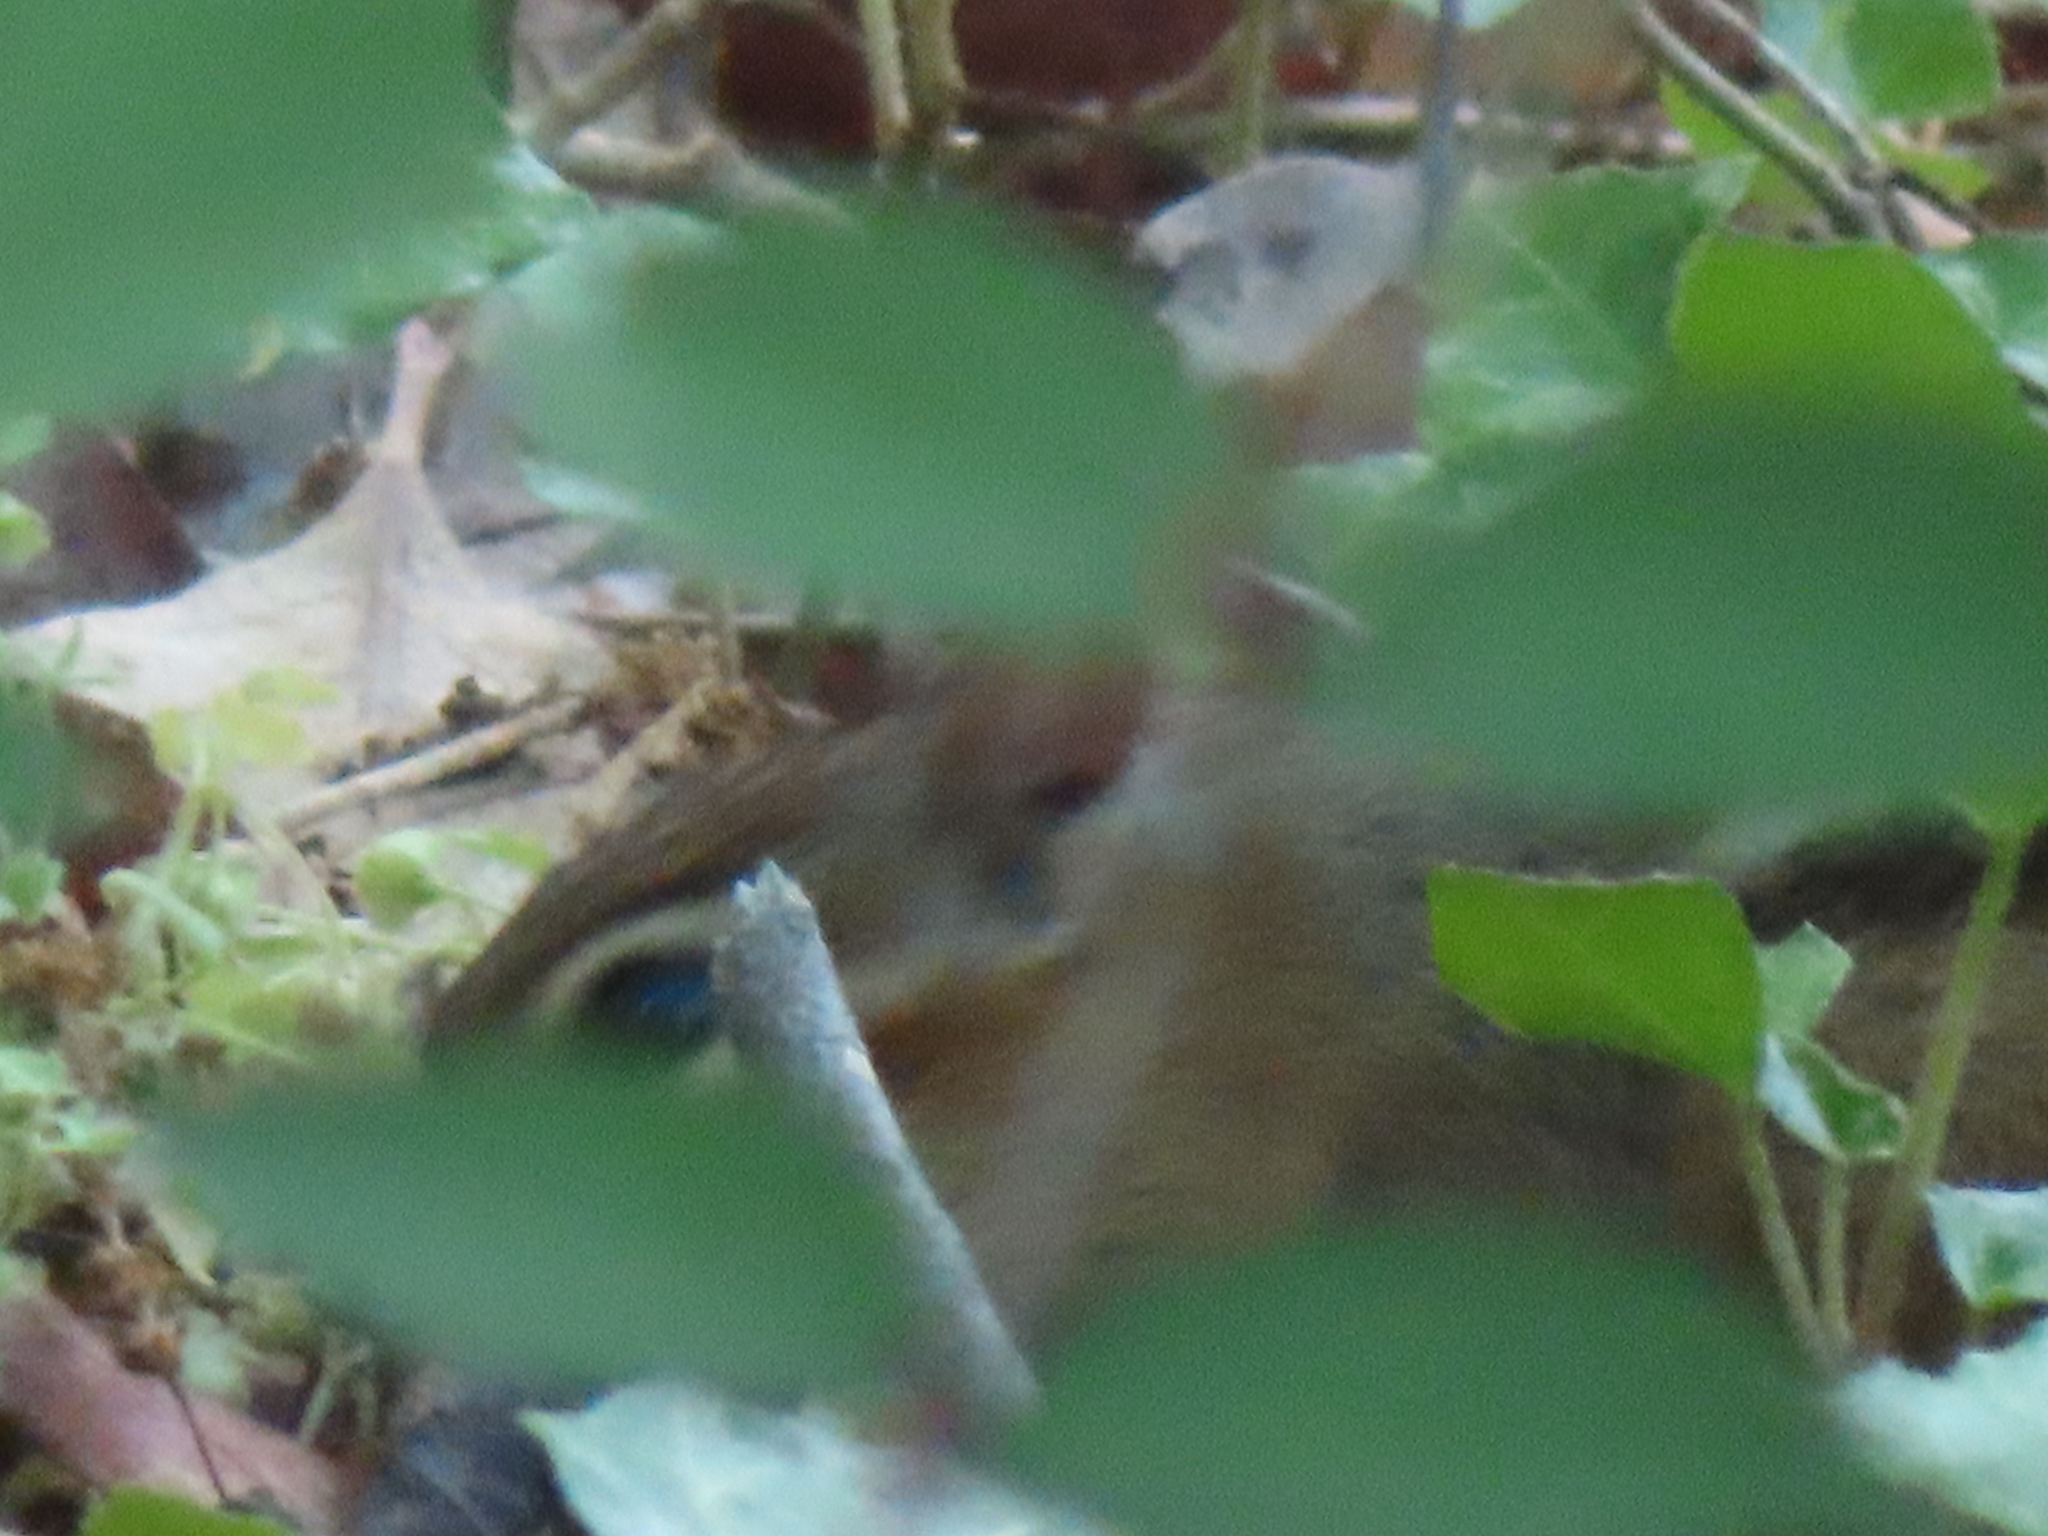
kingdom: Animalia
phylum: Chordata
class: Mammalia
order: Rodentia
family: Sciuridae
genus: Tamias
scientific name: Tamias striatus
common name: Eastern chipmunk
